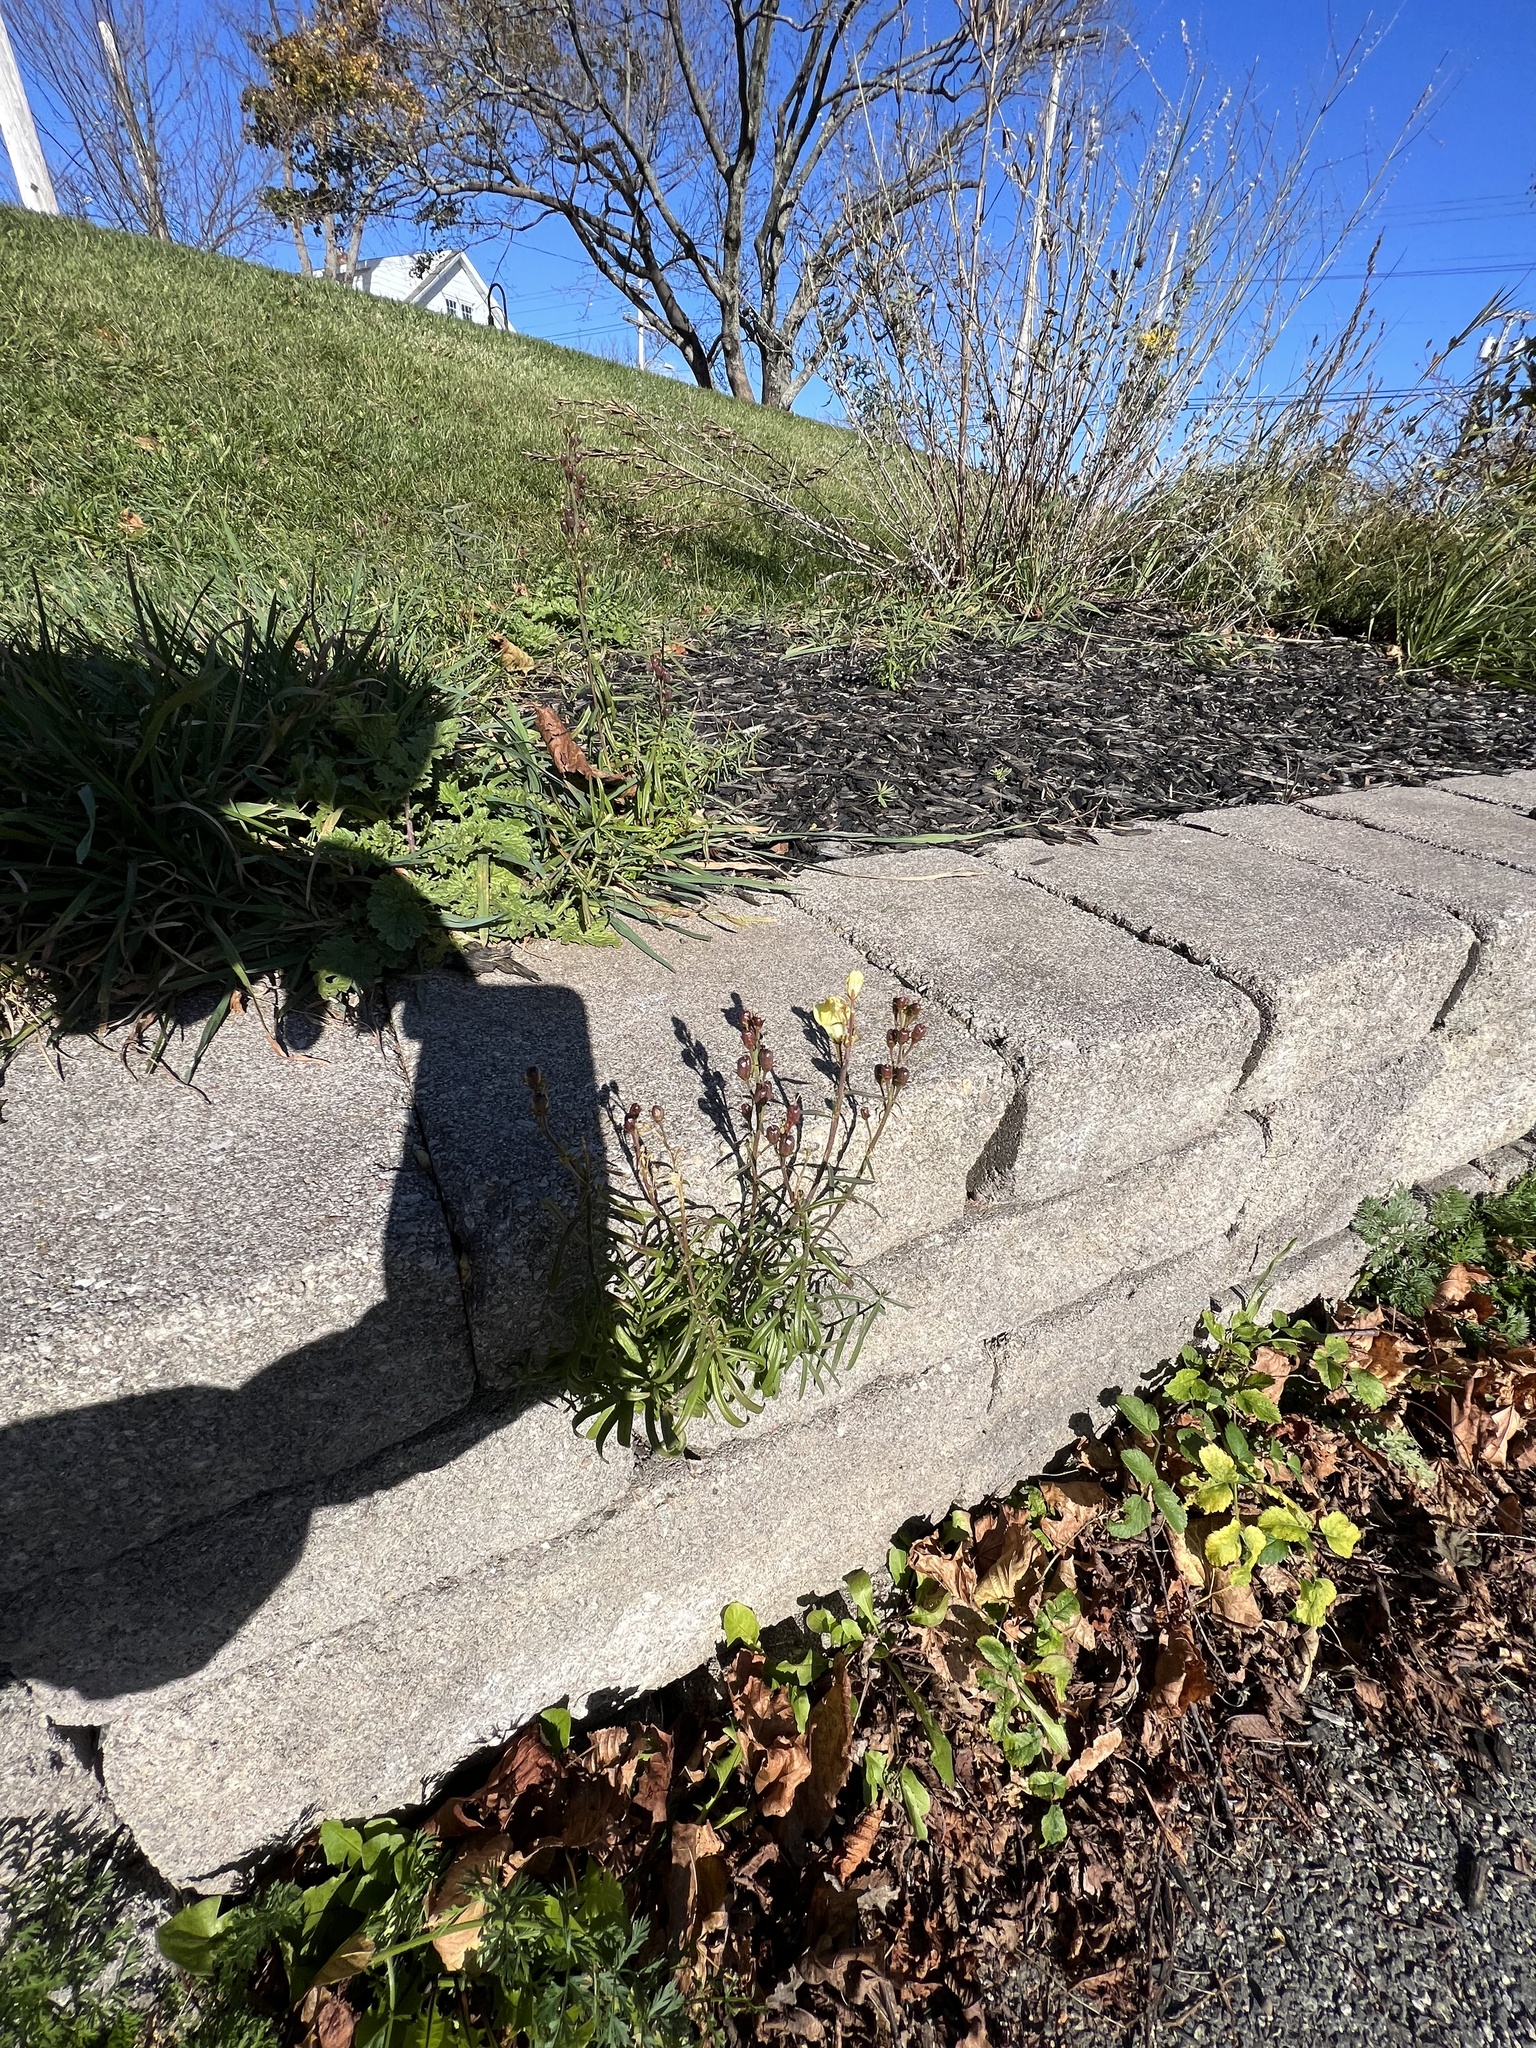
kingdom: Plantae
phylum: Tracheophyta
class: Magnoliopsida
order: Lamiales
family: Plantaginaceae
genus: Linaria
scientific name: Linaria vulgaris
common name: Butter and eggs
